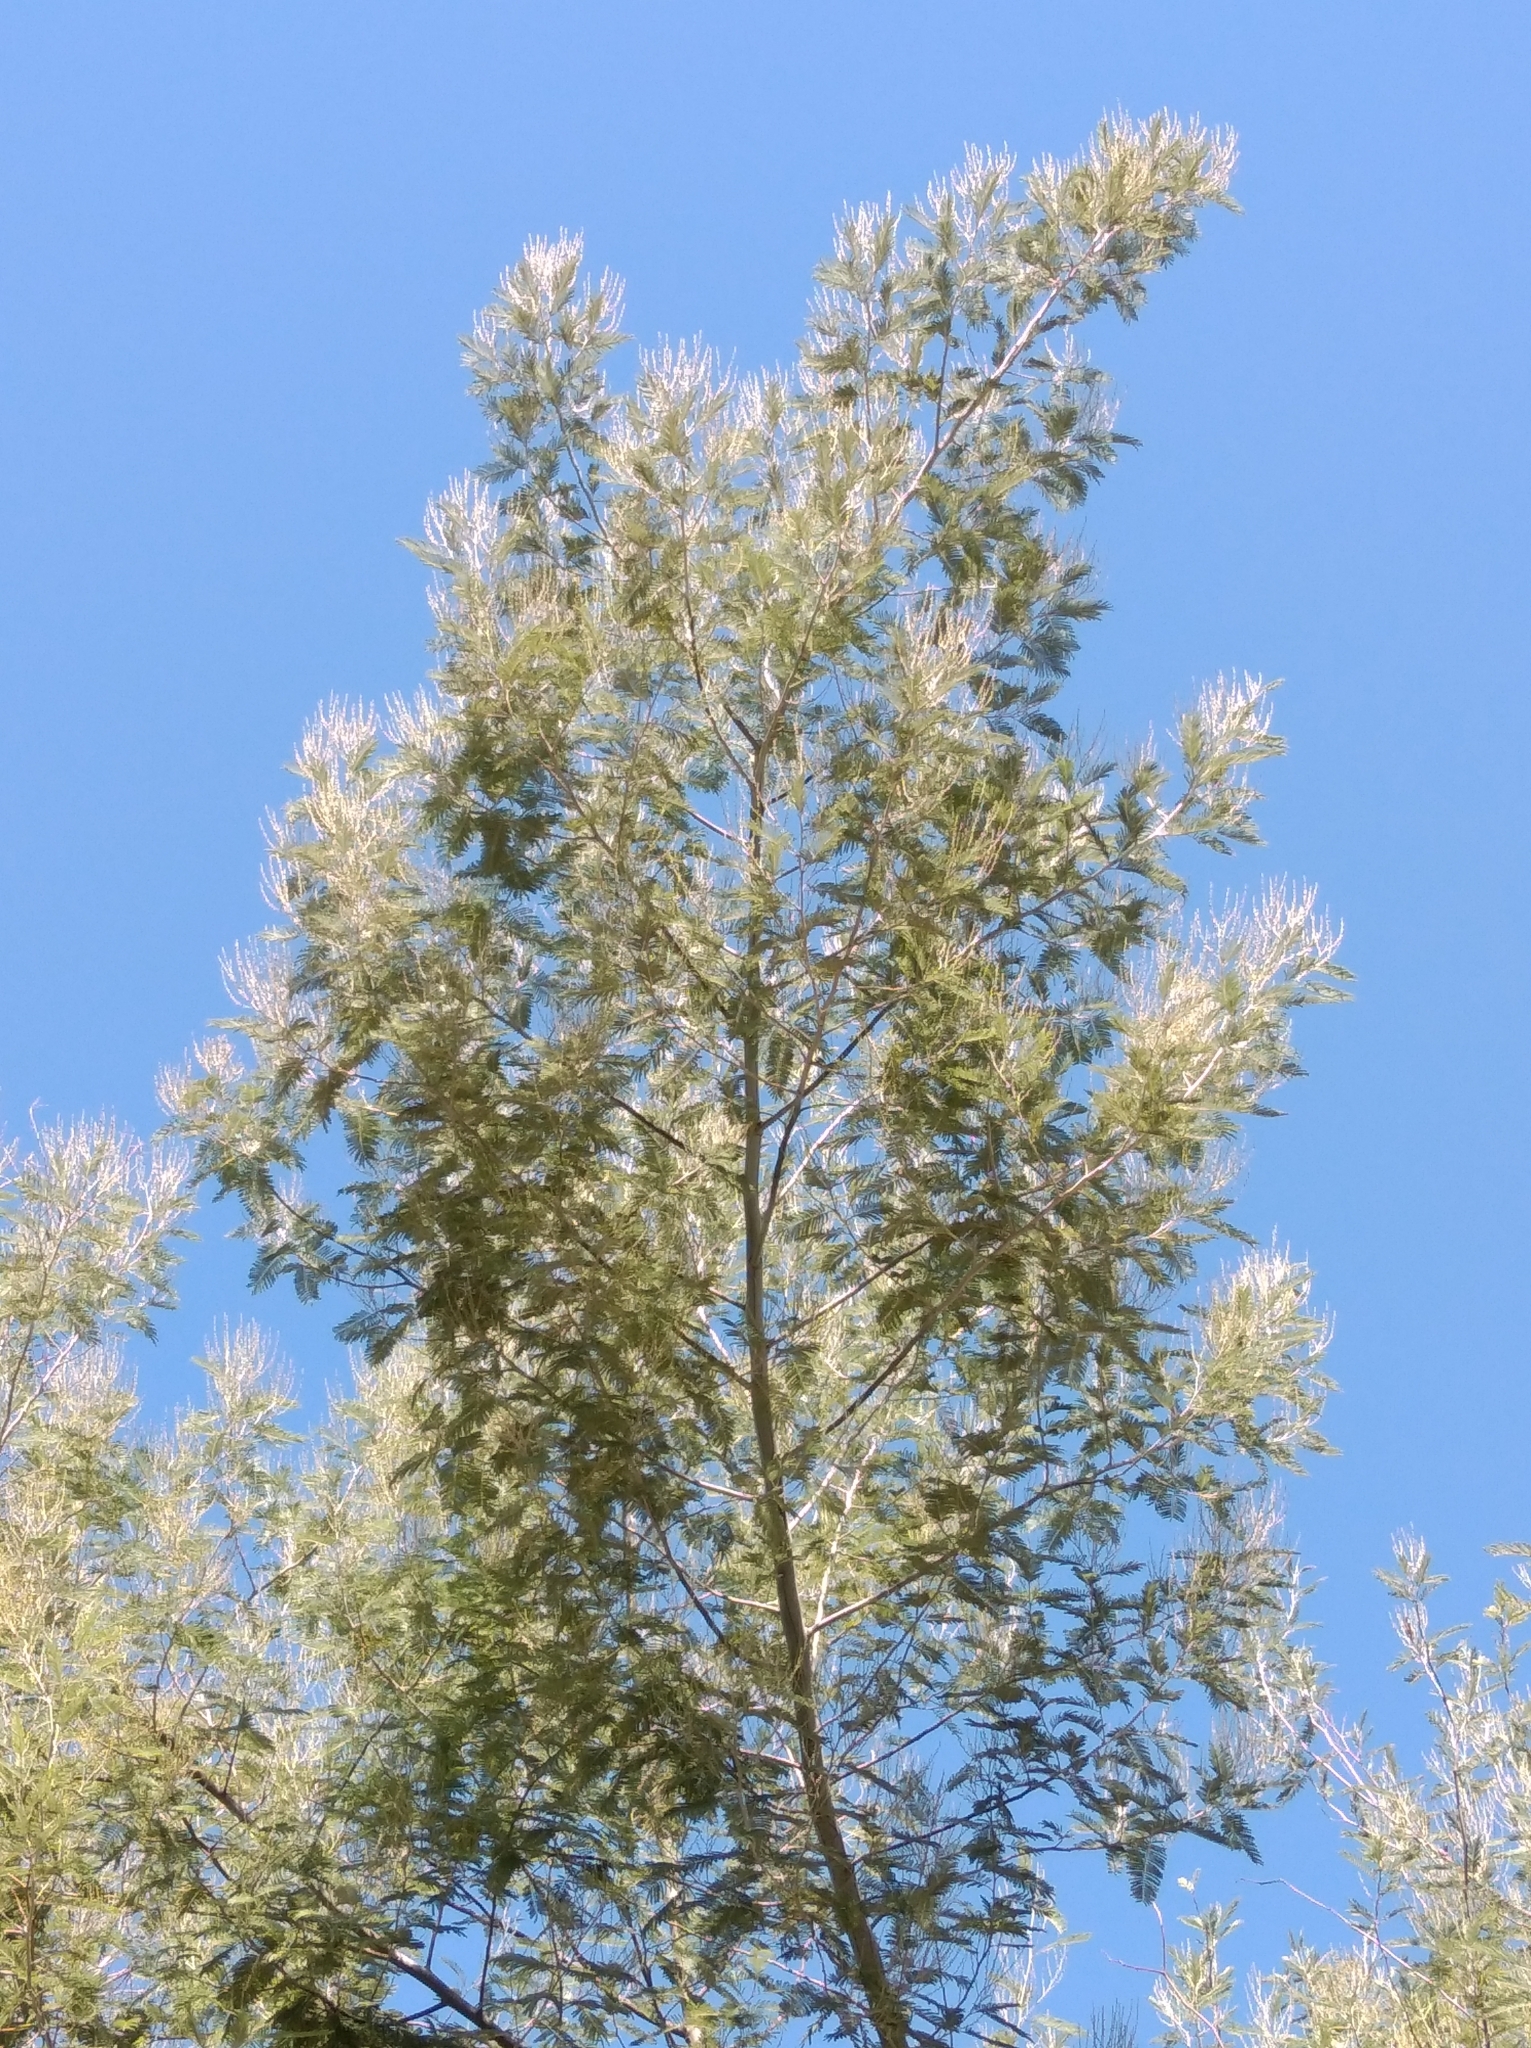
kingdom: Plantae
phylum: Tracheophyta
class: Magnoliopsida
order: Fabales
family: Fabaceae
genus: Acacia
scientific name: Acacia dealbata
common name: Silver wattle
